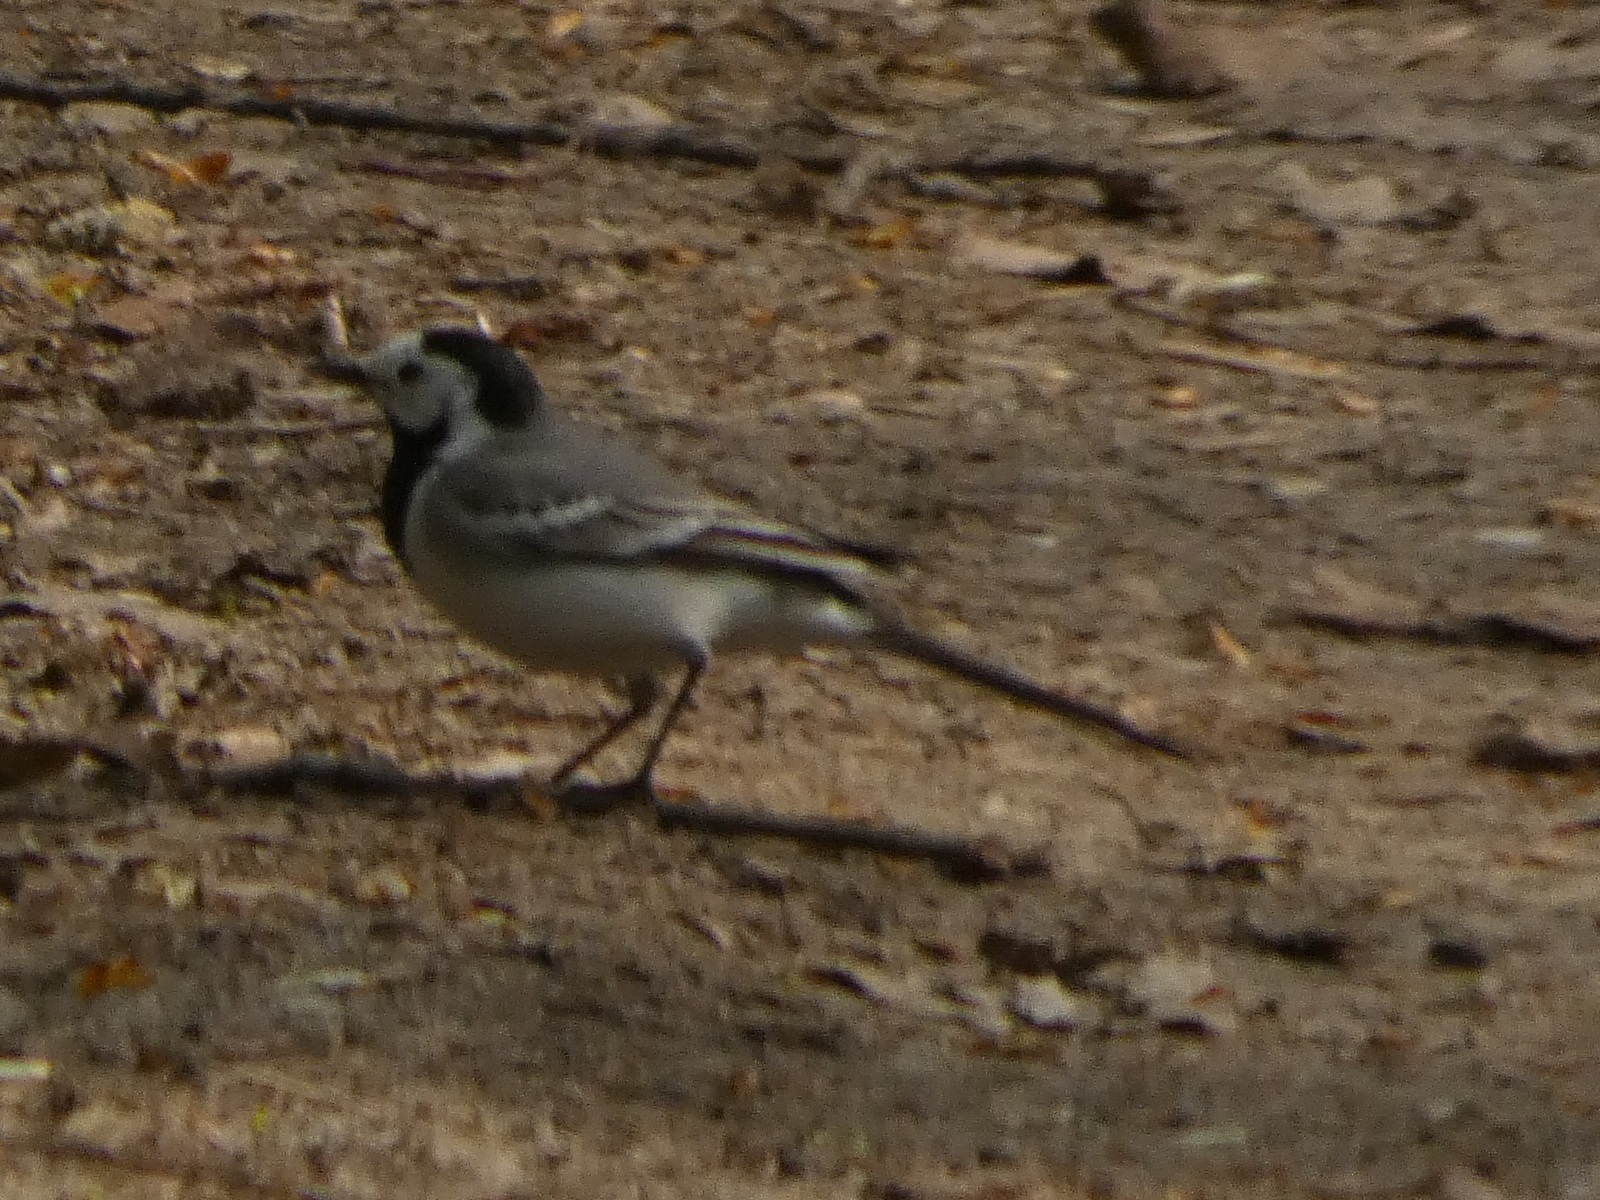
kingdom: Animalia
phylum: Chordata
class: Aves
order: Passeriformes
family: Motacillidae
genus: Motacilla
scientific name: Motacilla alba
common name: White wagtail
